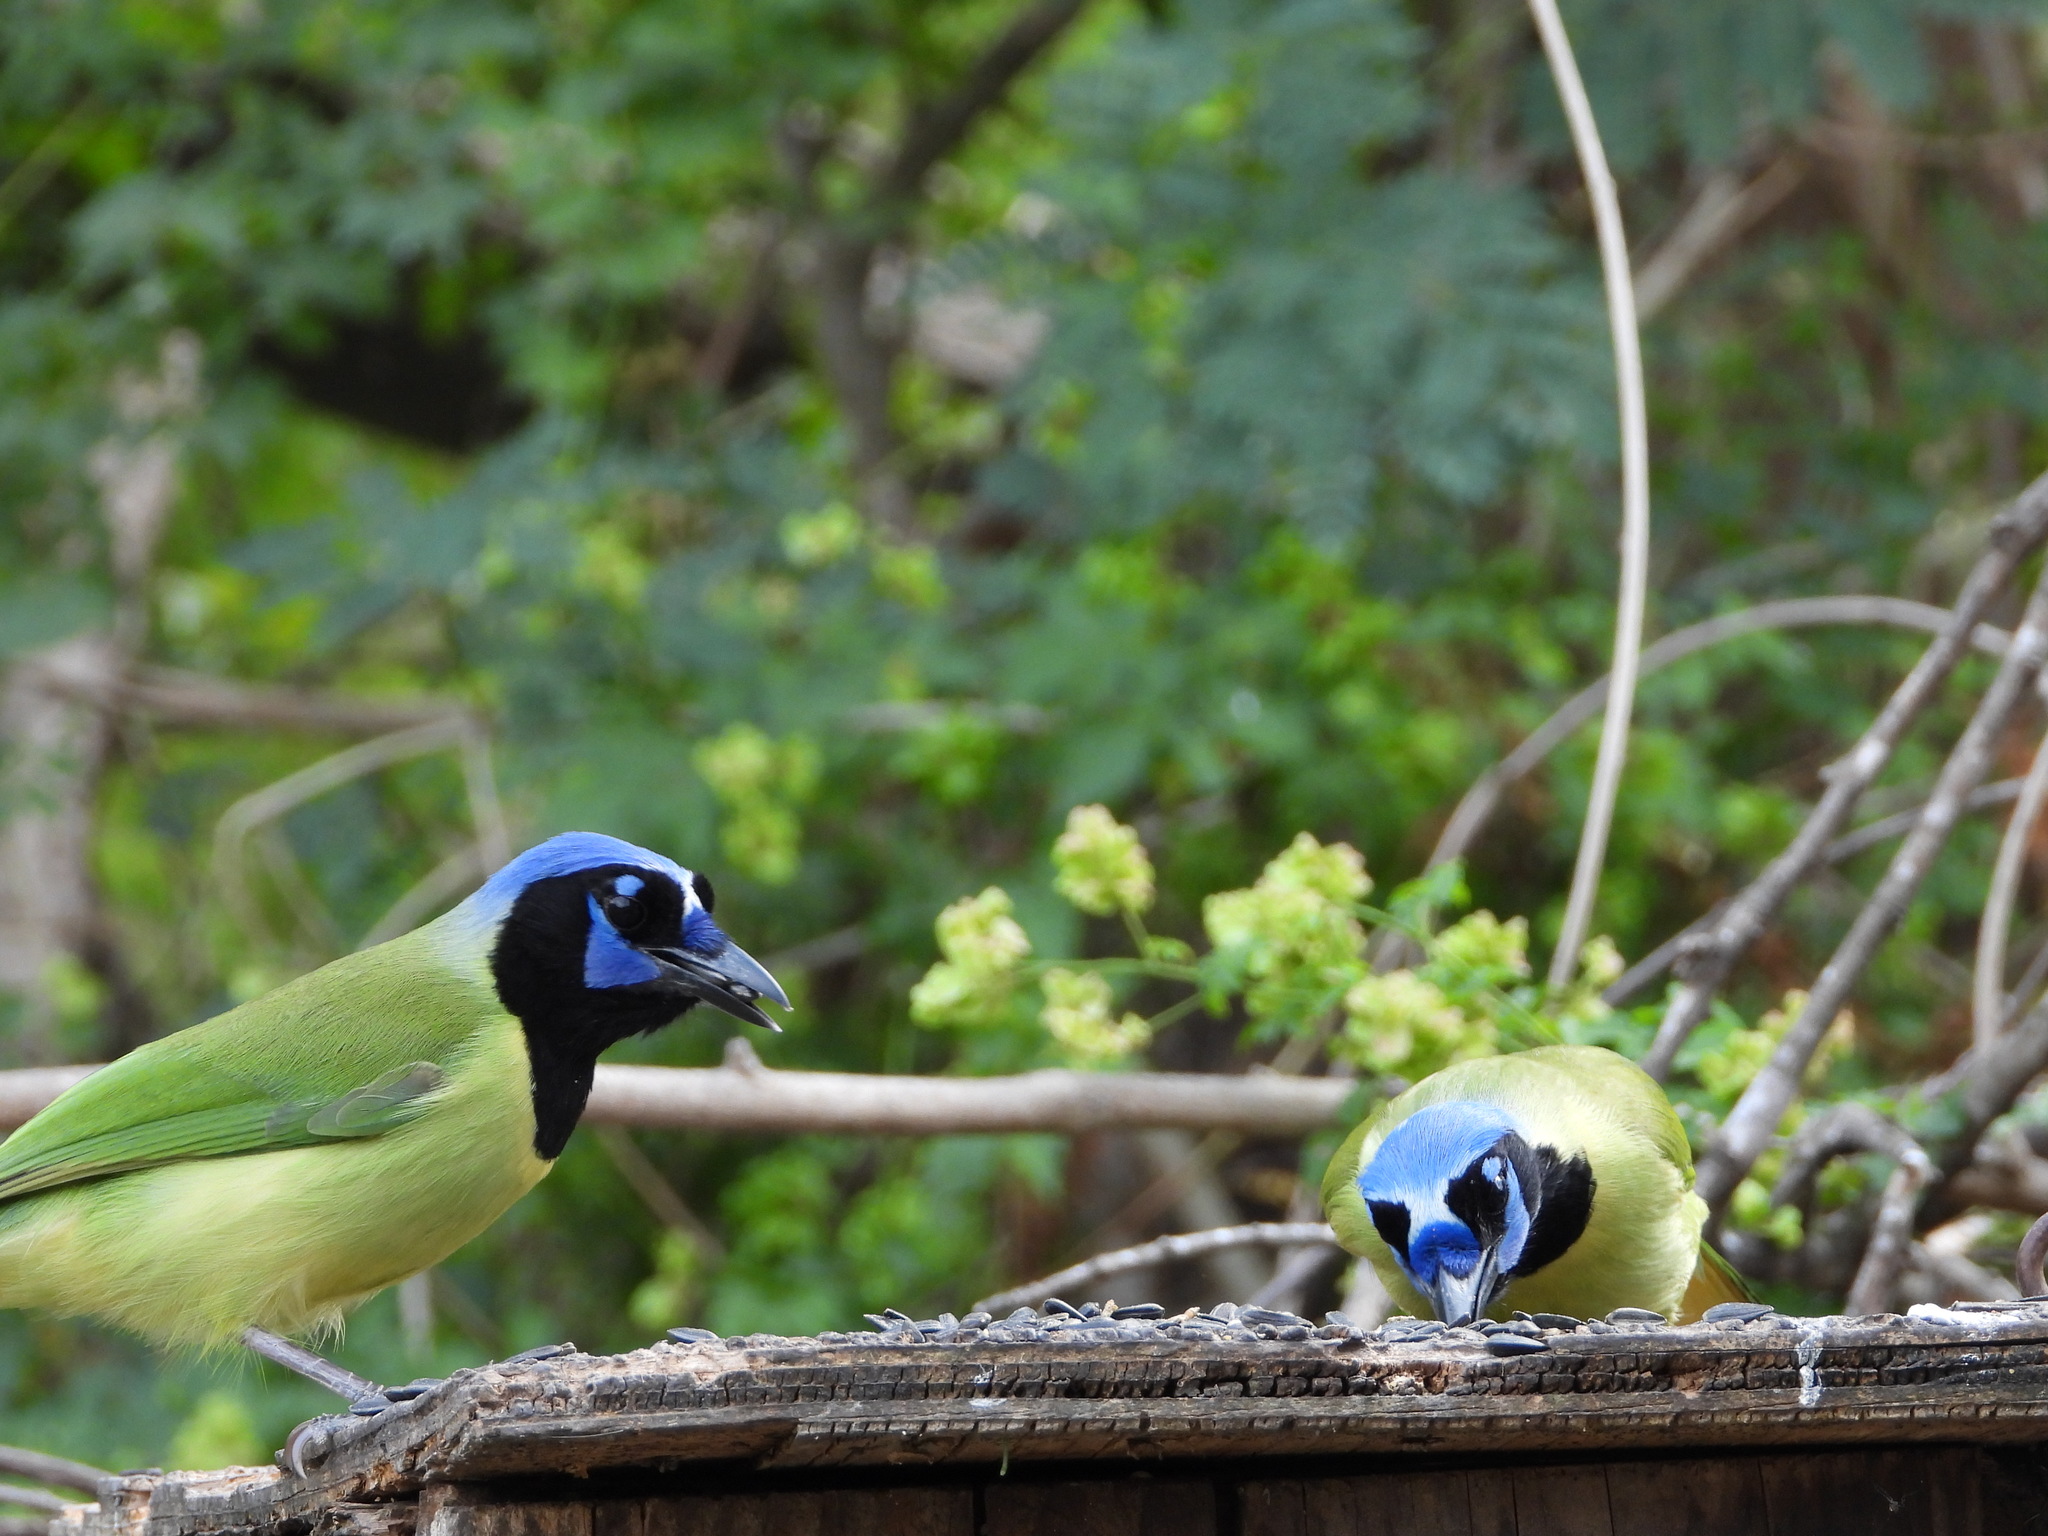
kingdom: Animalia
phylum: Chordata
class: Aves
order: Passeriformes
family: Corvidae
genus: Cyanocorax
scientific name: Cyanocorax yncas
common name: Green jay
